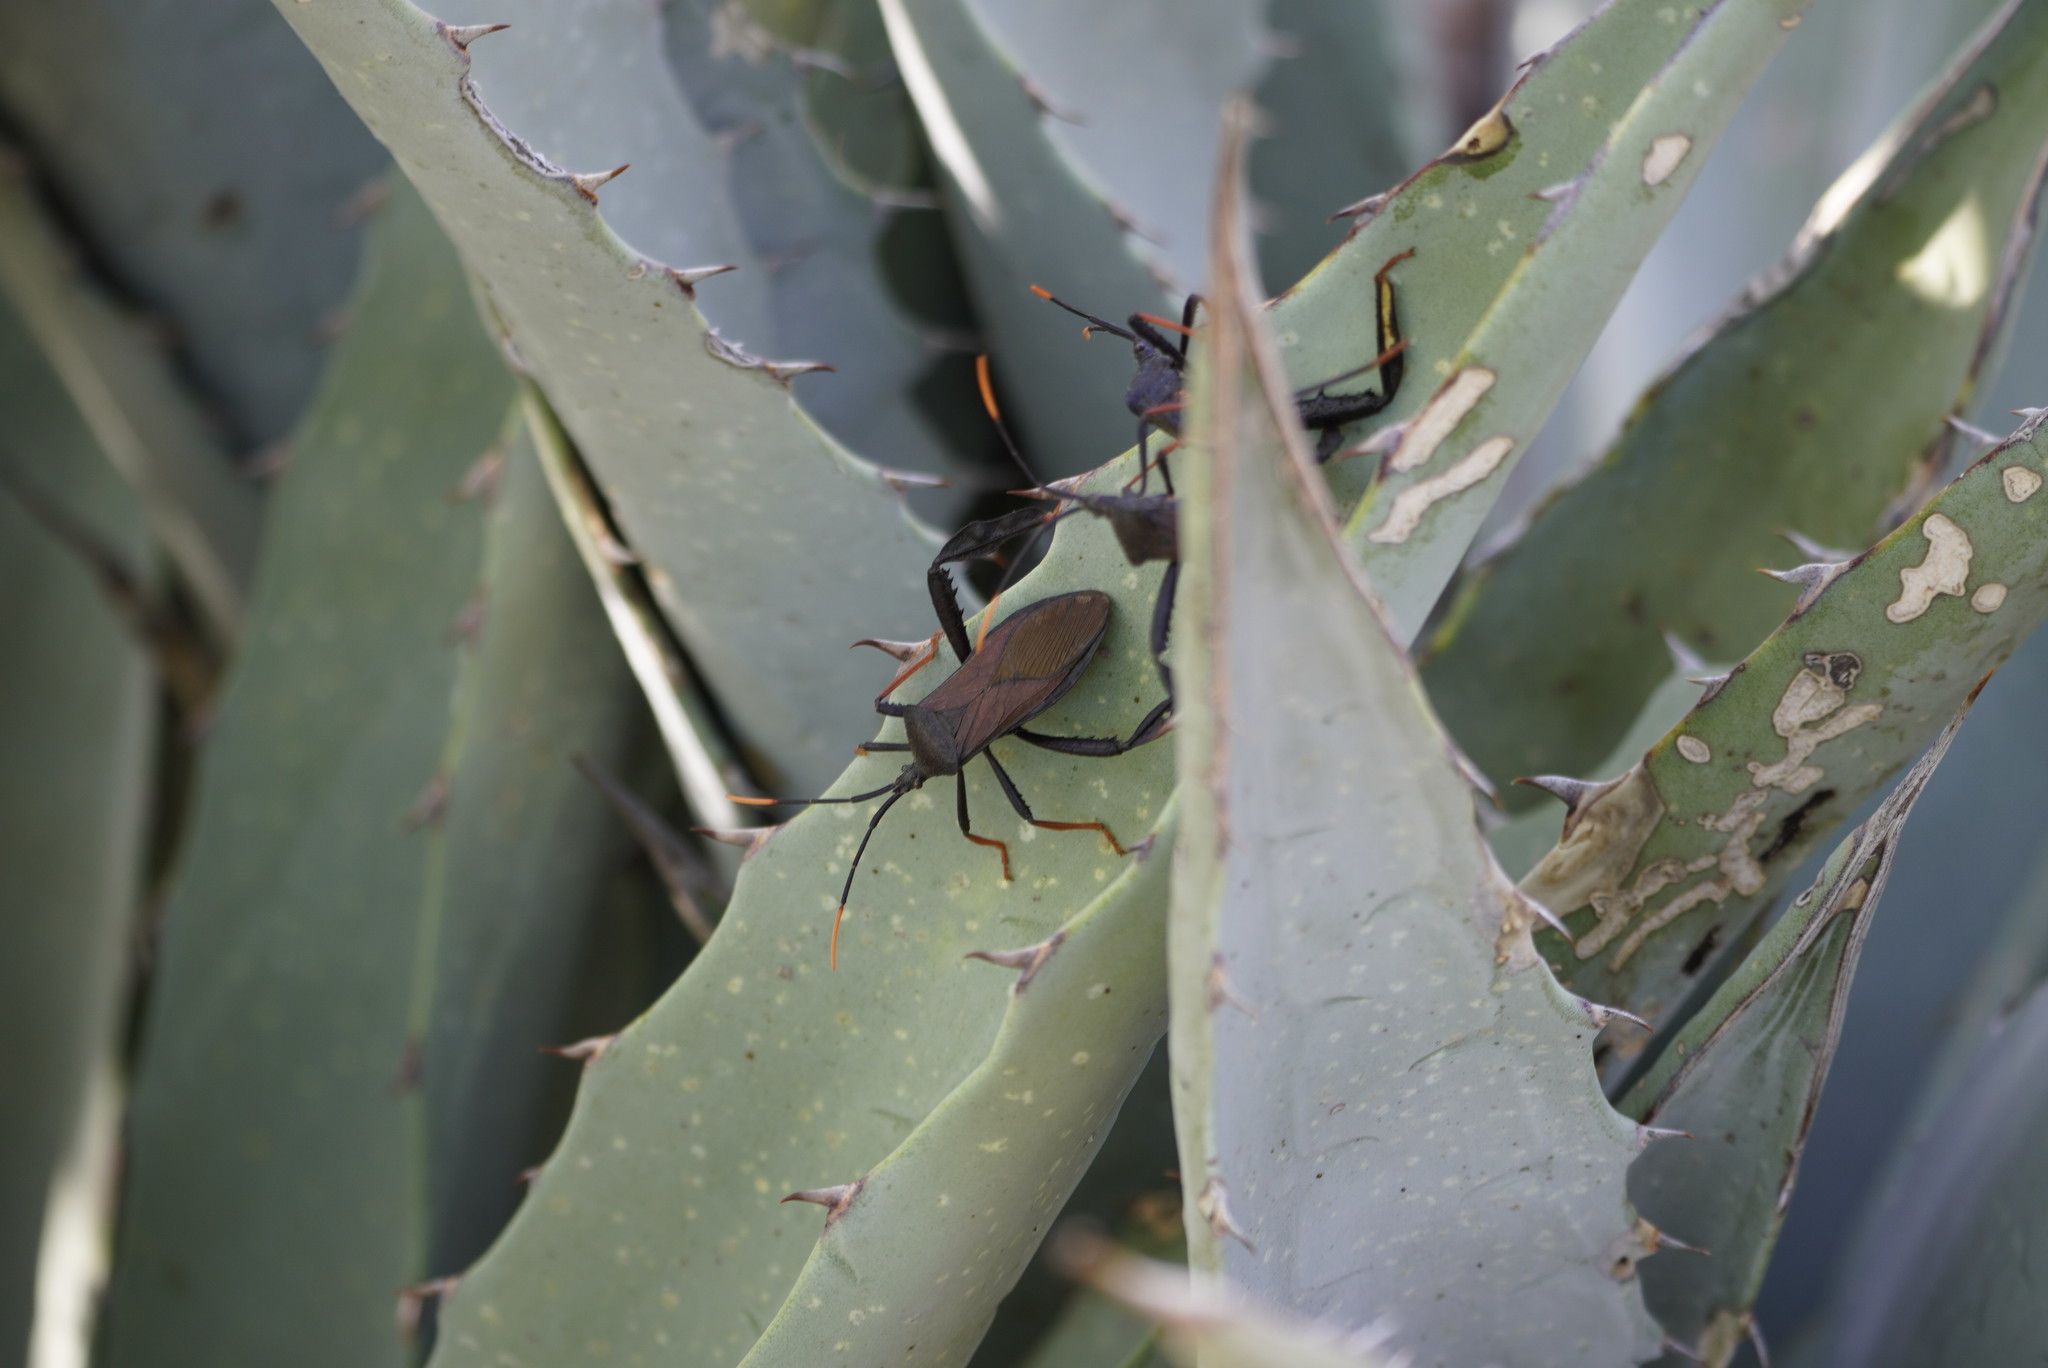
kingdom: Animalia
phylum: Arthropoda
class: Insecta
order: Hemiptera
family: Coreidae
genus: Acanthocephala
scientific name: Acanthocephala thomasi
